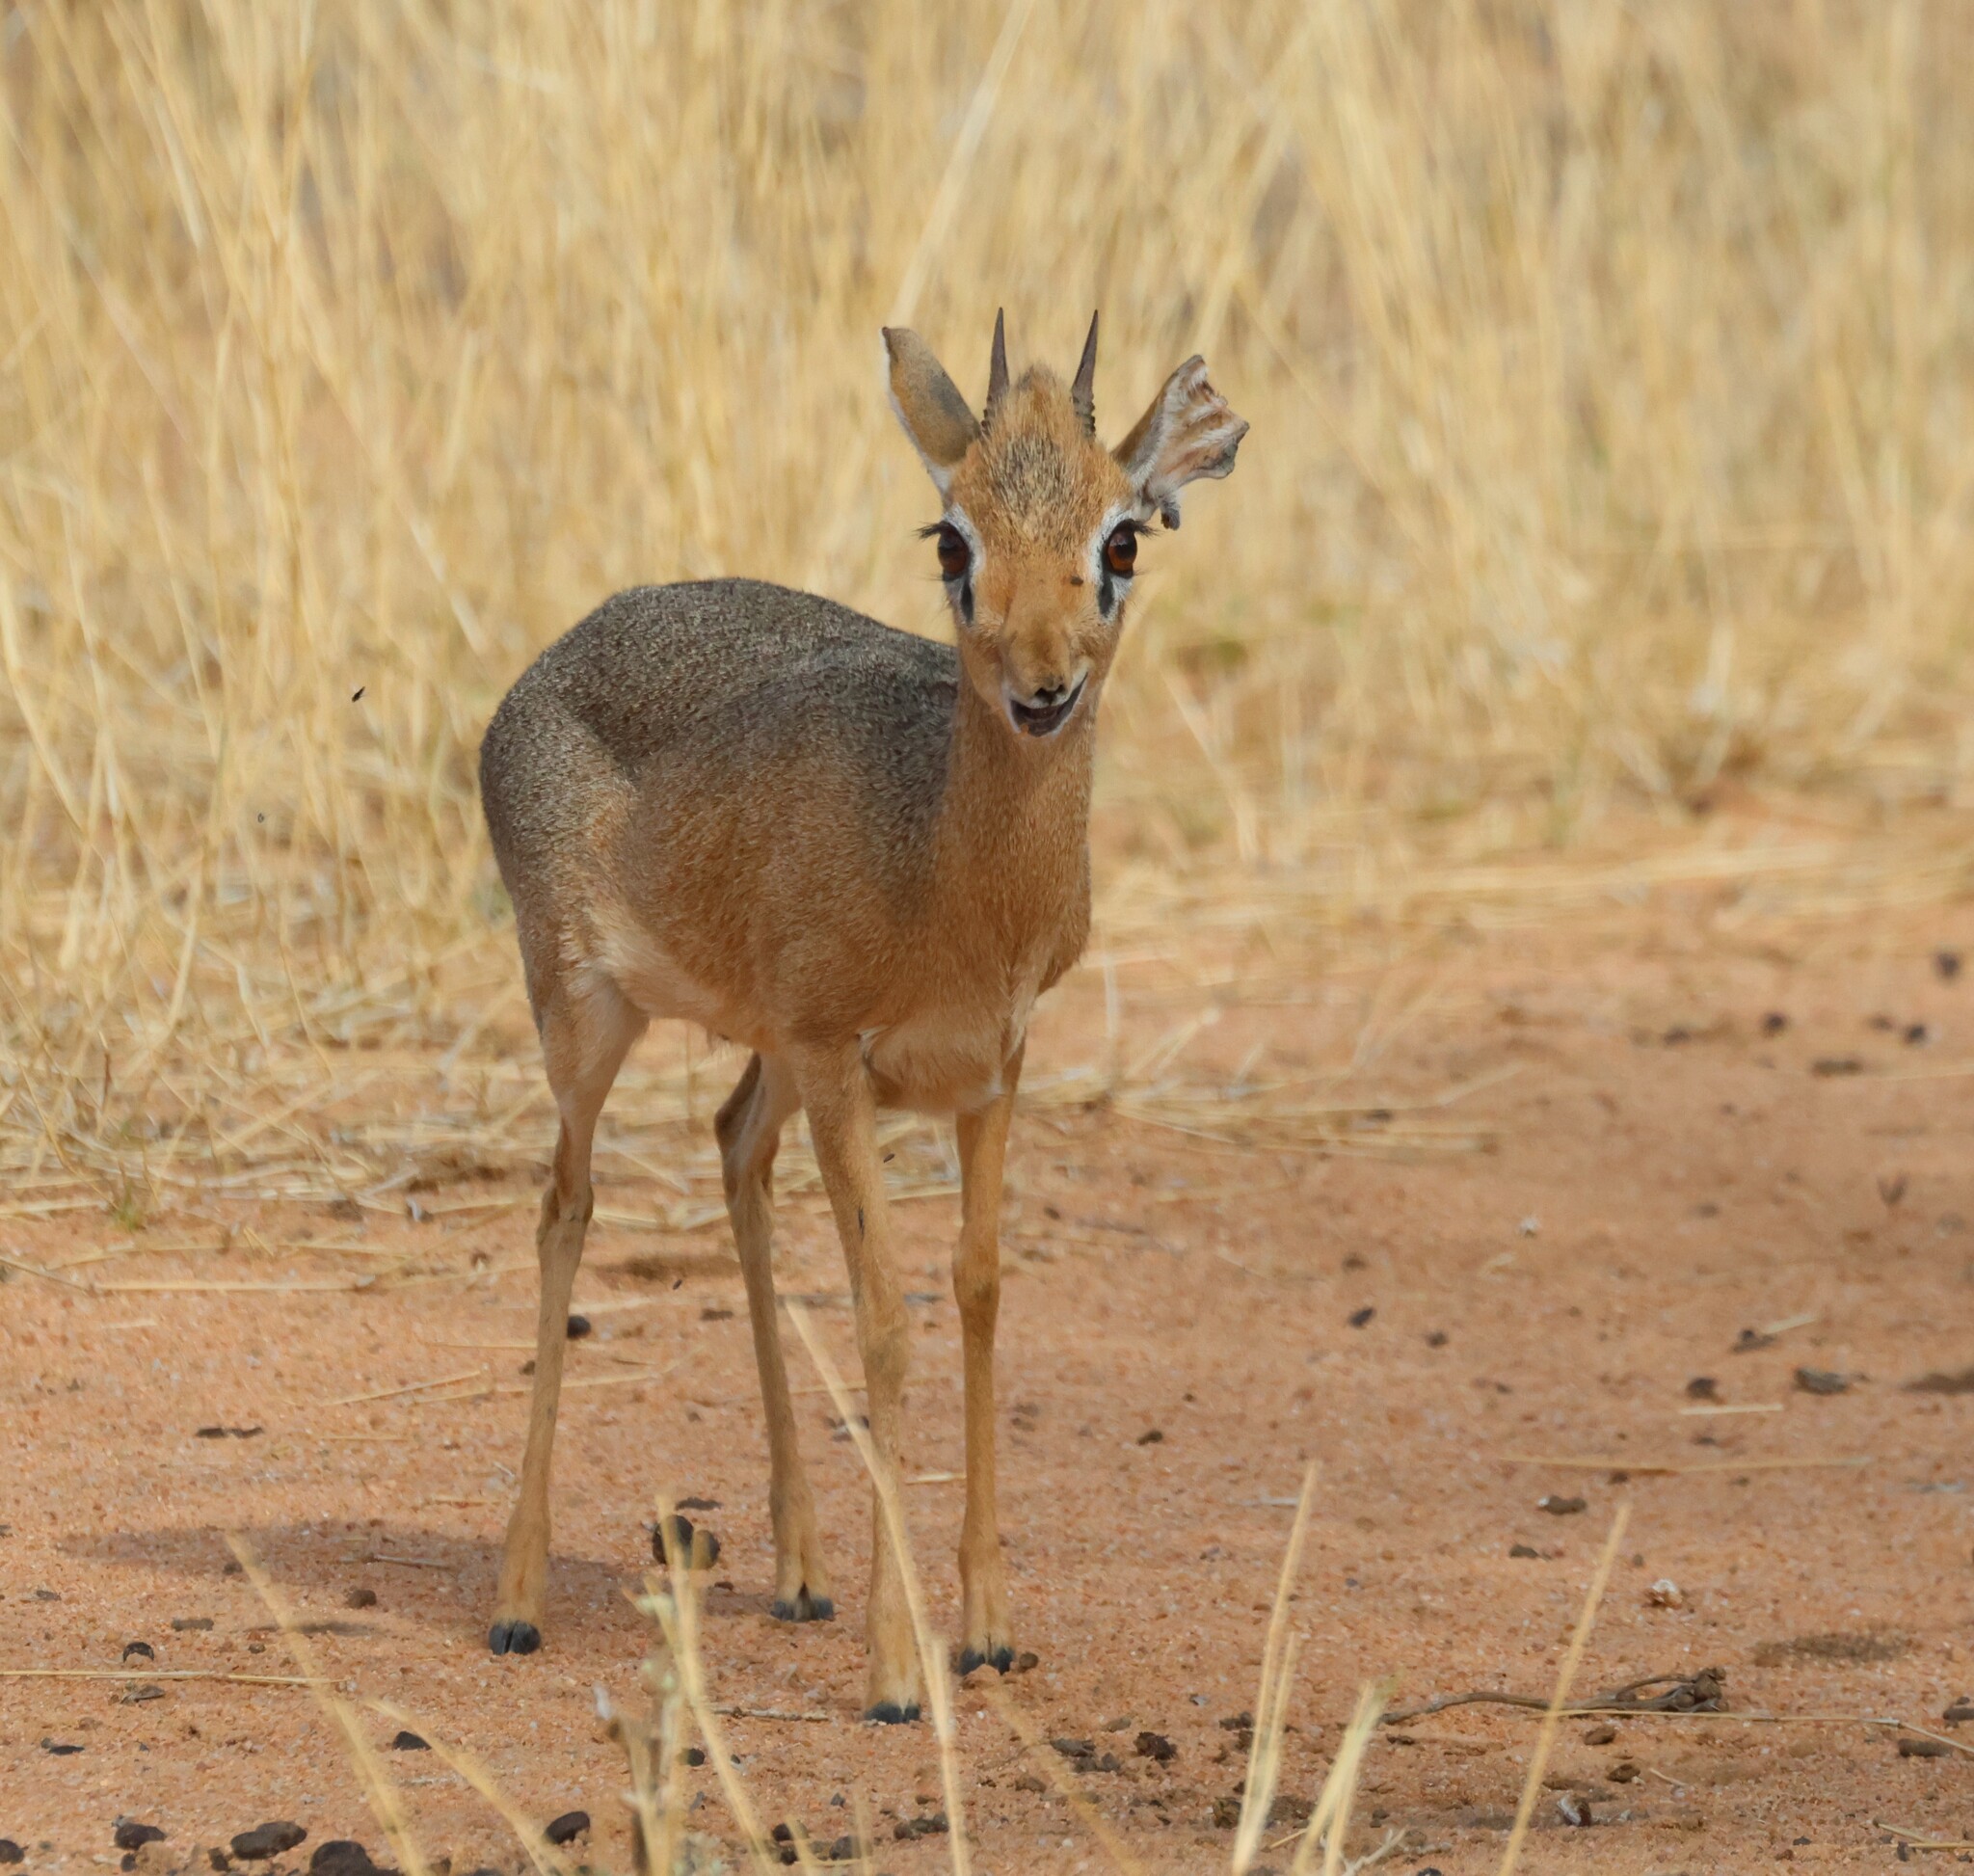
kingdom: Animalia
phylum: Chordata
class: Mammalia
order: Artiodactyla
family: Bovidae
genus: Madoqua
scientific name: Madoqua kirkii
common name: Kirk's dik-dik
